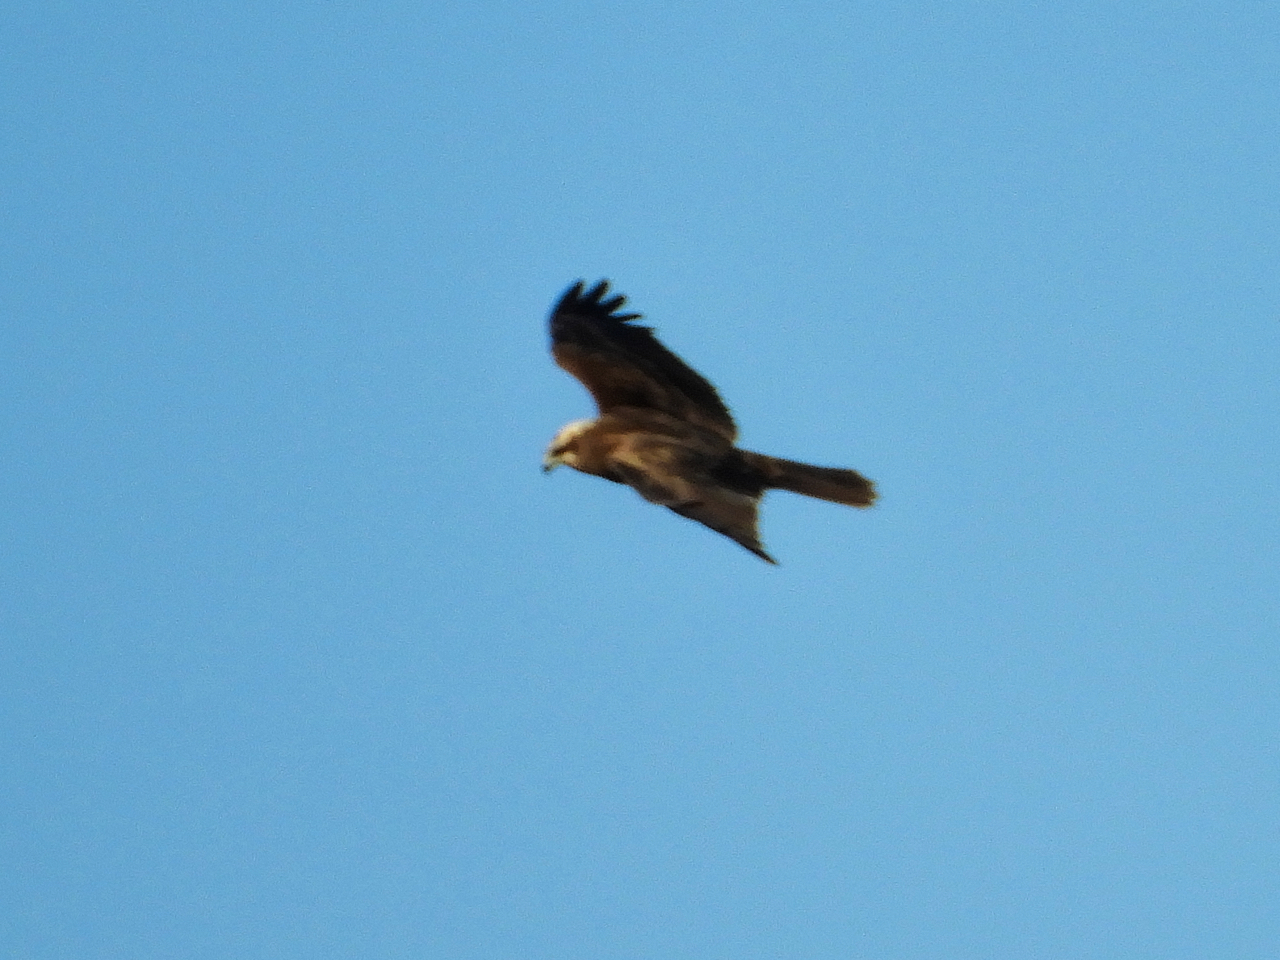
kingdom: Animalia
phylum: Chordata
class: Aves
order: Accipitriformes
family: Accipitridae
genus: Circus
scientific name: Circus aeruginosus
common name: Western marsh harrier
